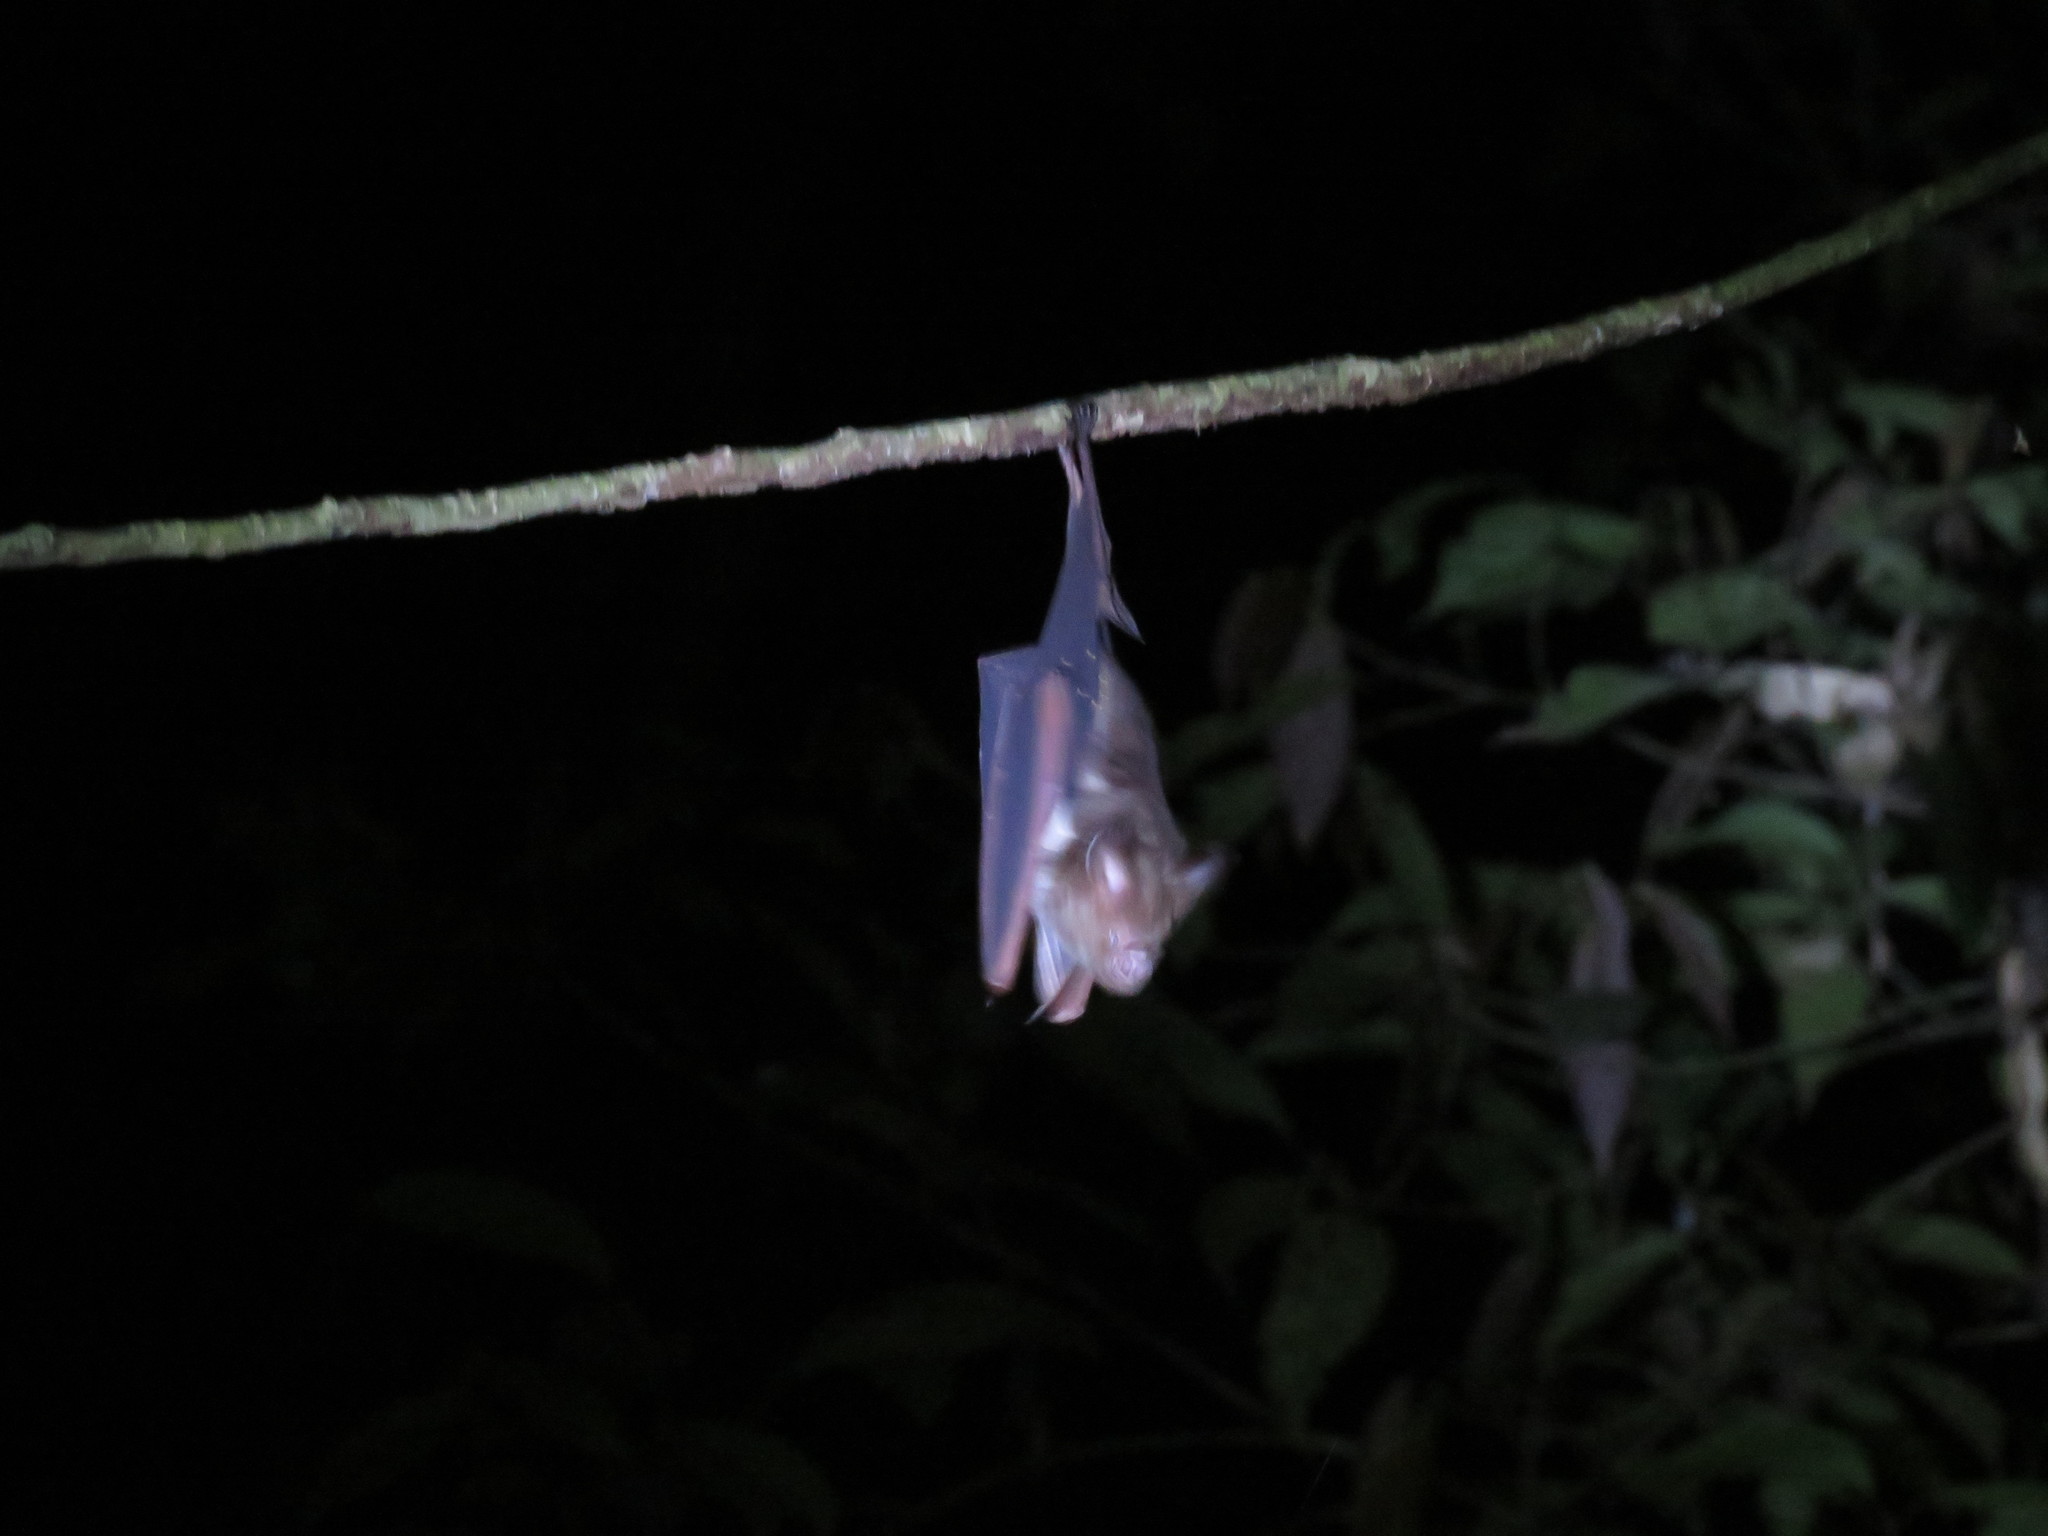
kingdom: Animalia
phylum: Chordata
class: Mammalia
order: Chiroptera
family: Hipposideridae
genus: Hipposideros
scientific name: Hipposideros diadema
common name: Diadem leaf-nosed bat
